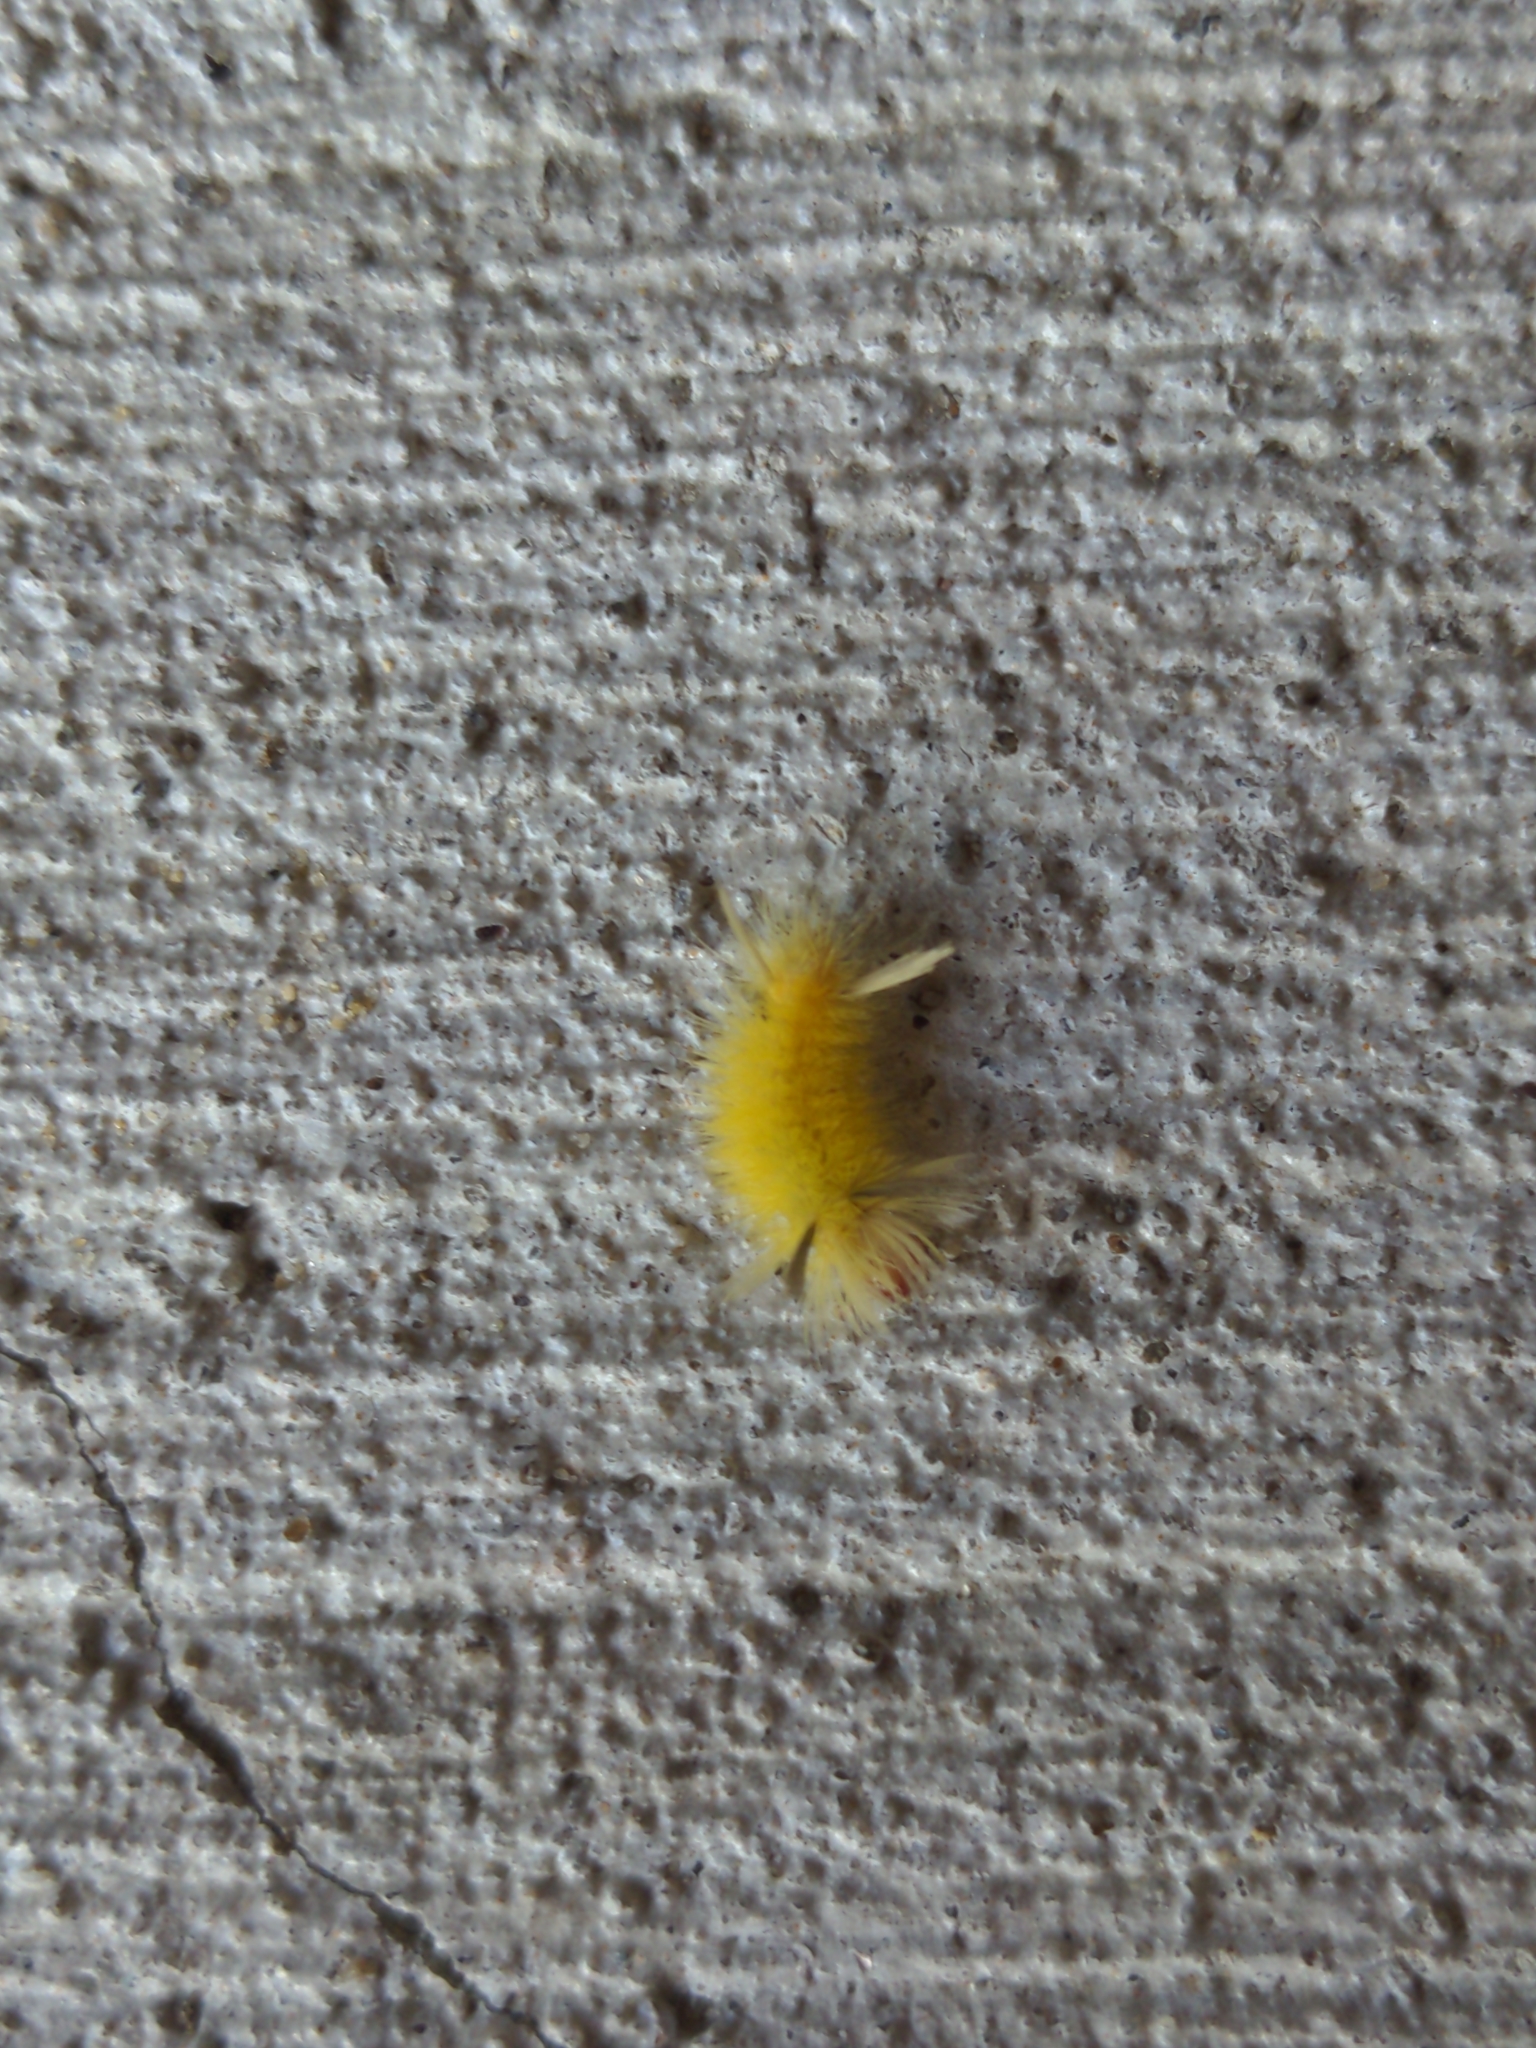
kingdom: Animalia
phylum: Arthropoda
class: Insecta
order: Lepidoptera
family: Erebidae
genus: Halysidota
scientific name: Halysidota tessellaris
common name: Banded tussock moth
